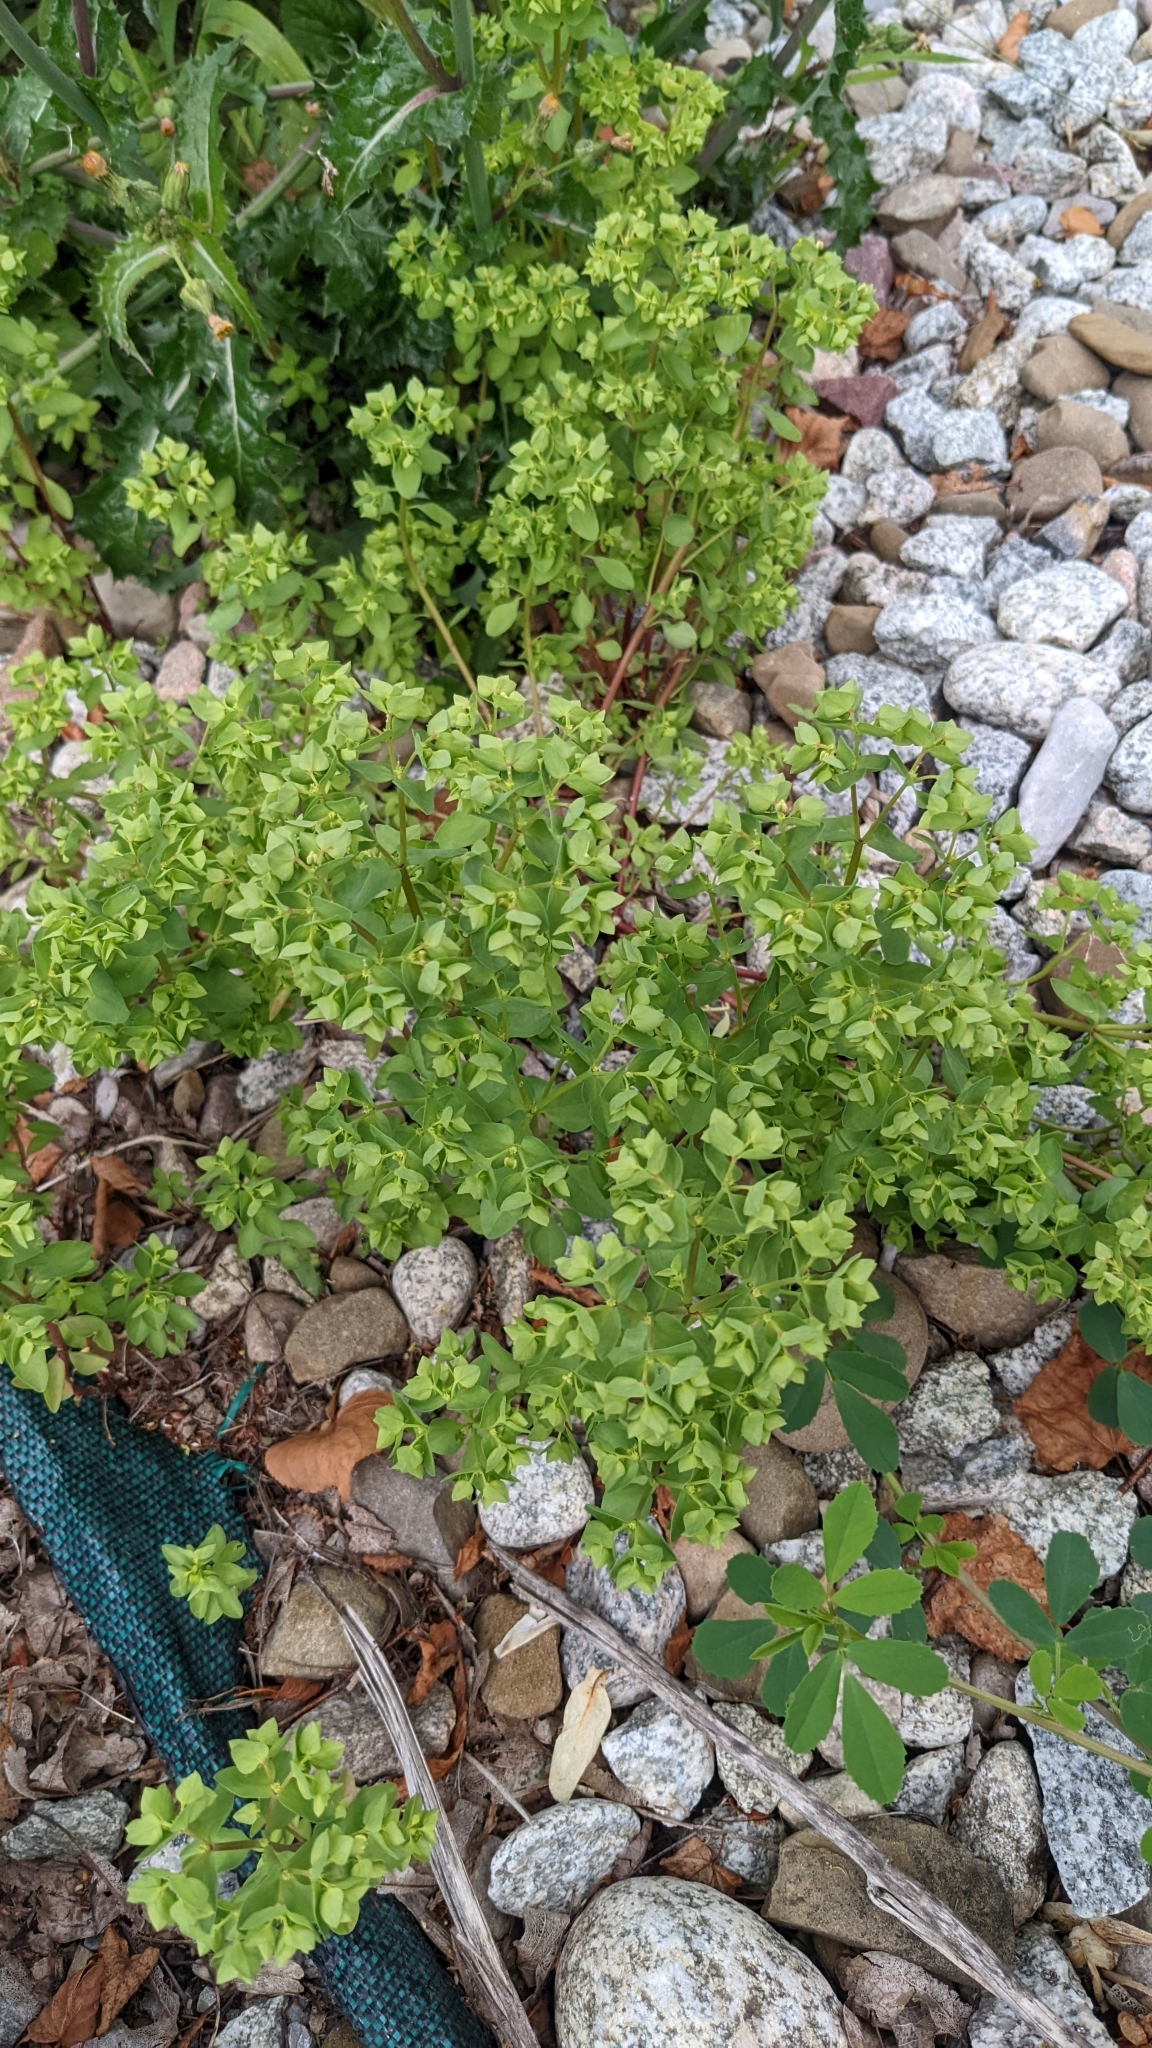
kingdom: Plantae
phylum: Tracheophyta
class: Magnoliopsida
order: Malpighiales
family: Euphorbiaceae
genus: Euphorbia
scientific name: Euphorbia peplus
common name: Petty spurge
